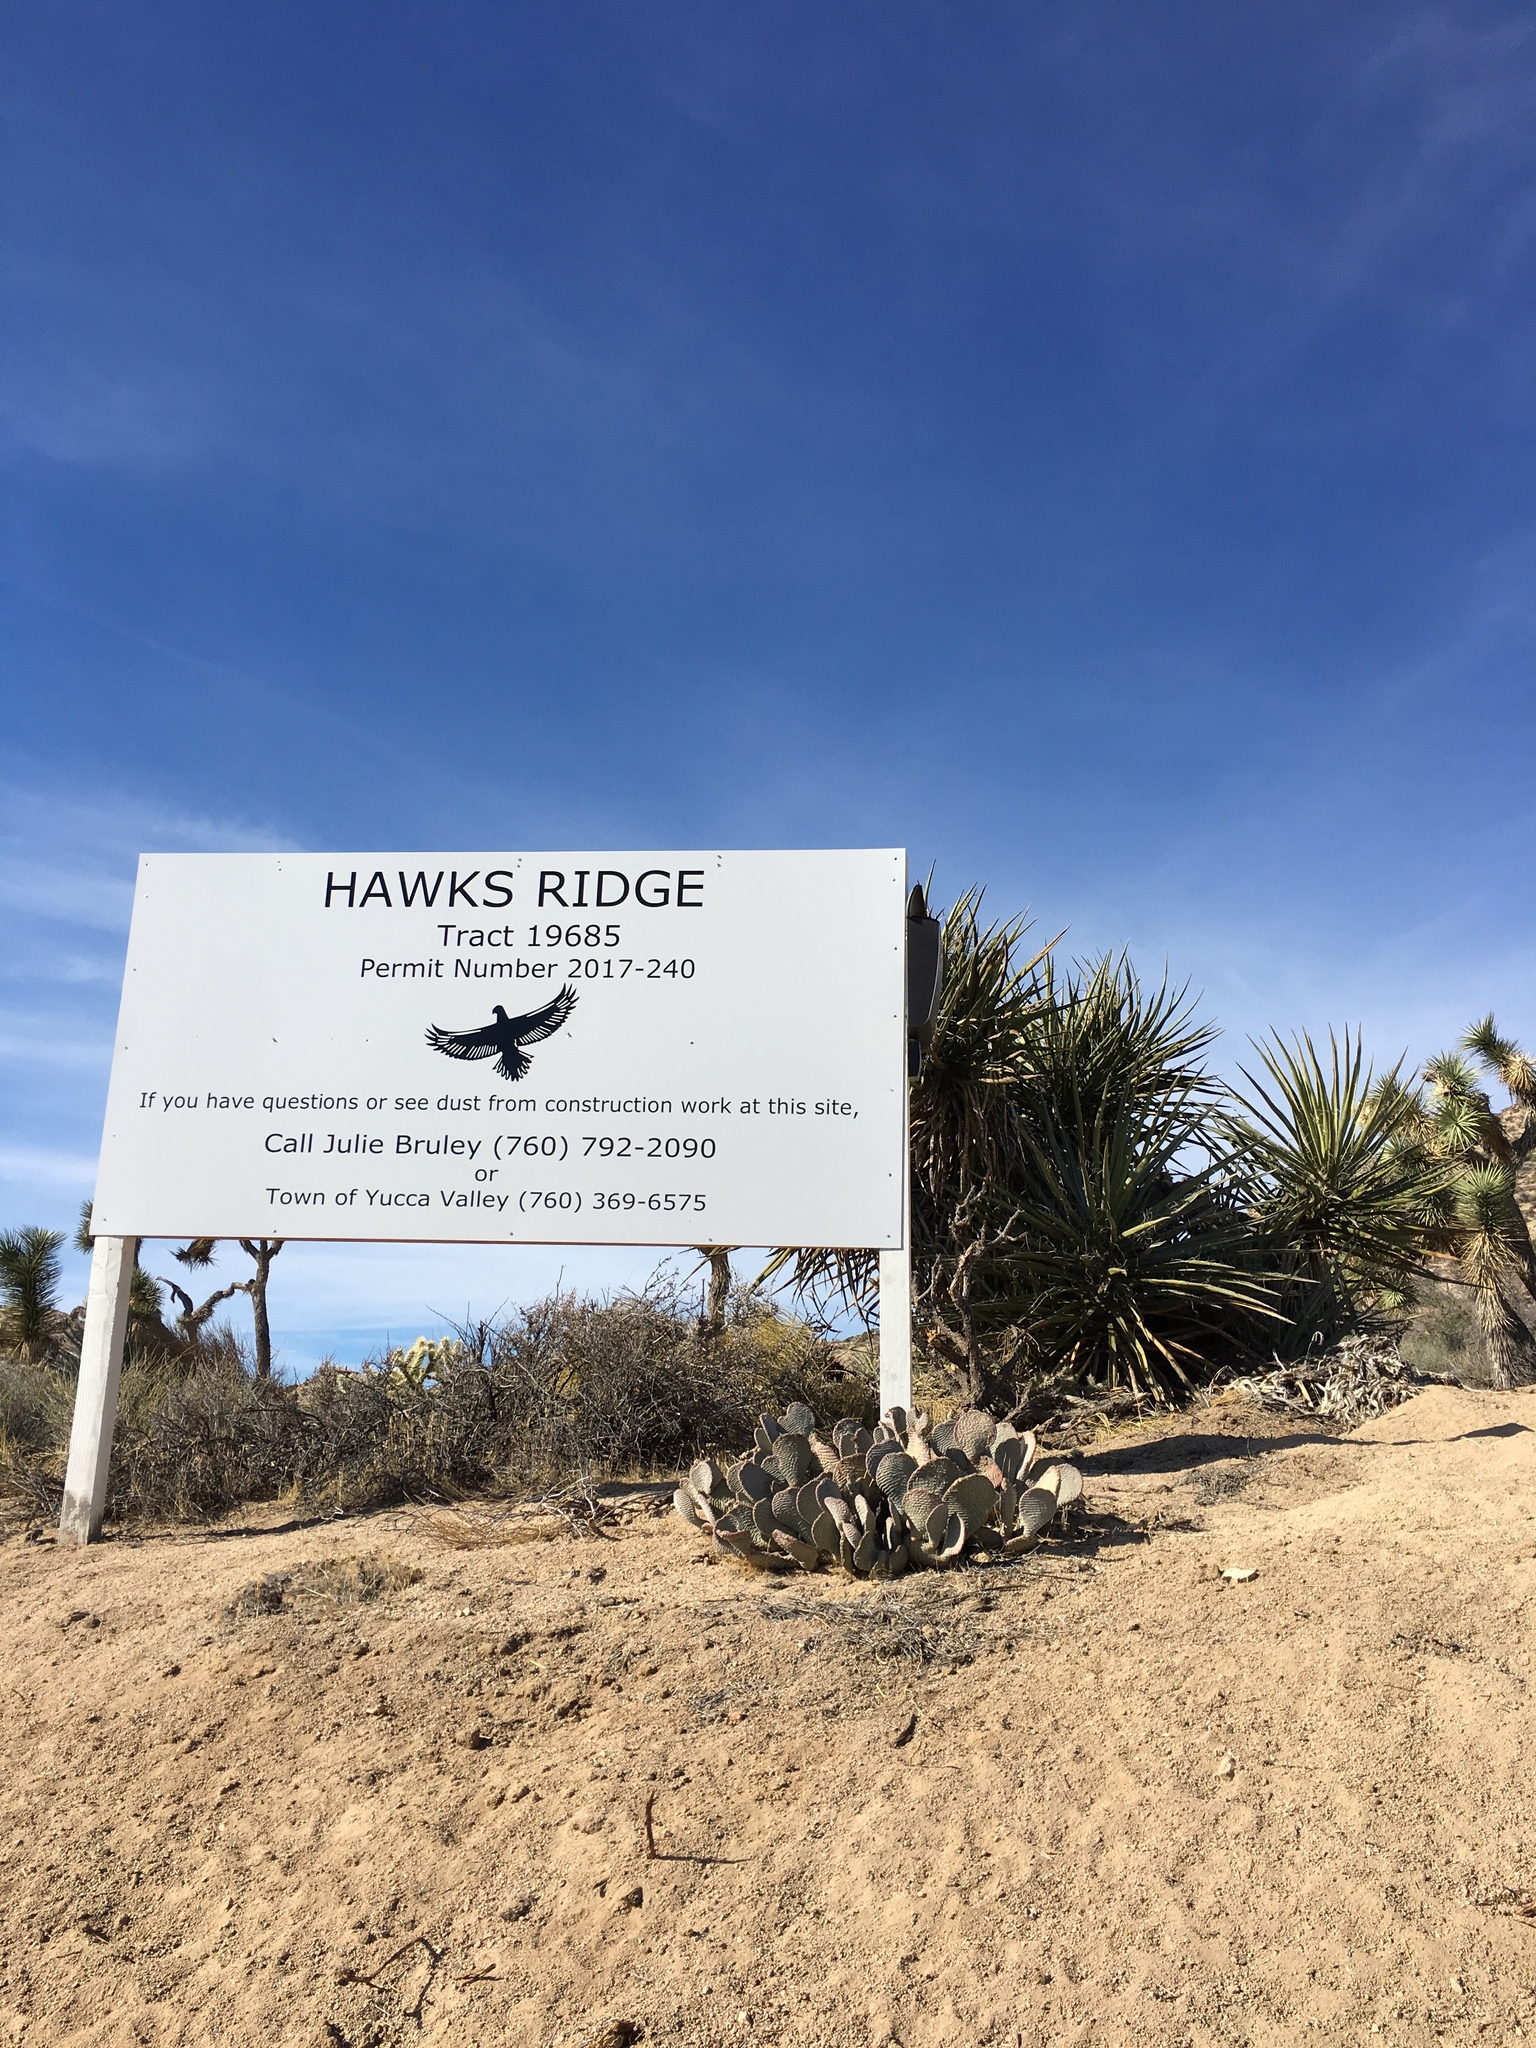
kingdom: Plantae
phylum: Tracheophyta
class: Magnoliopsida
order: Caryophyllales
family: Cactaceae
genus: Opuntia
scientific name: Opuntia basilaris
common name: Beavertail prickly-pear
